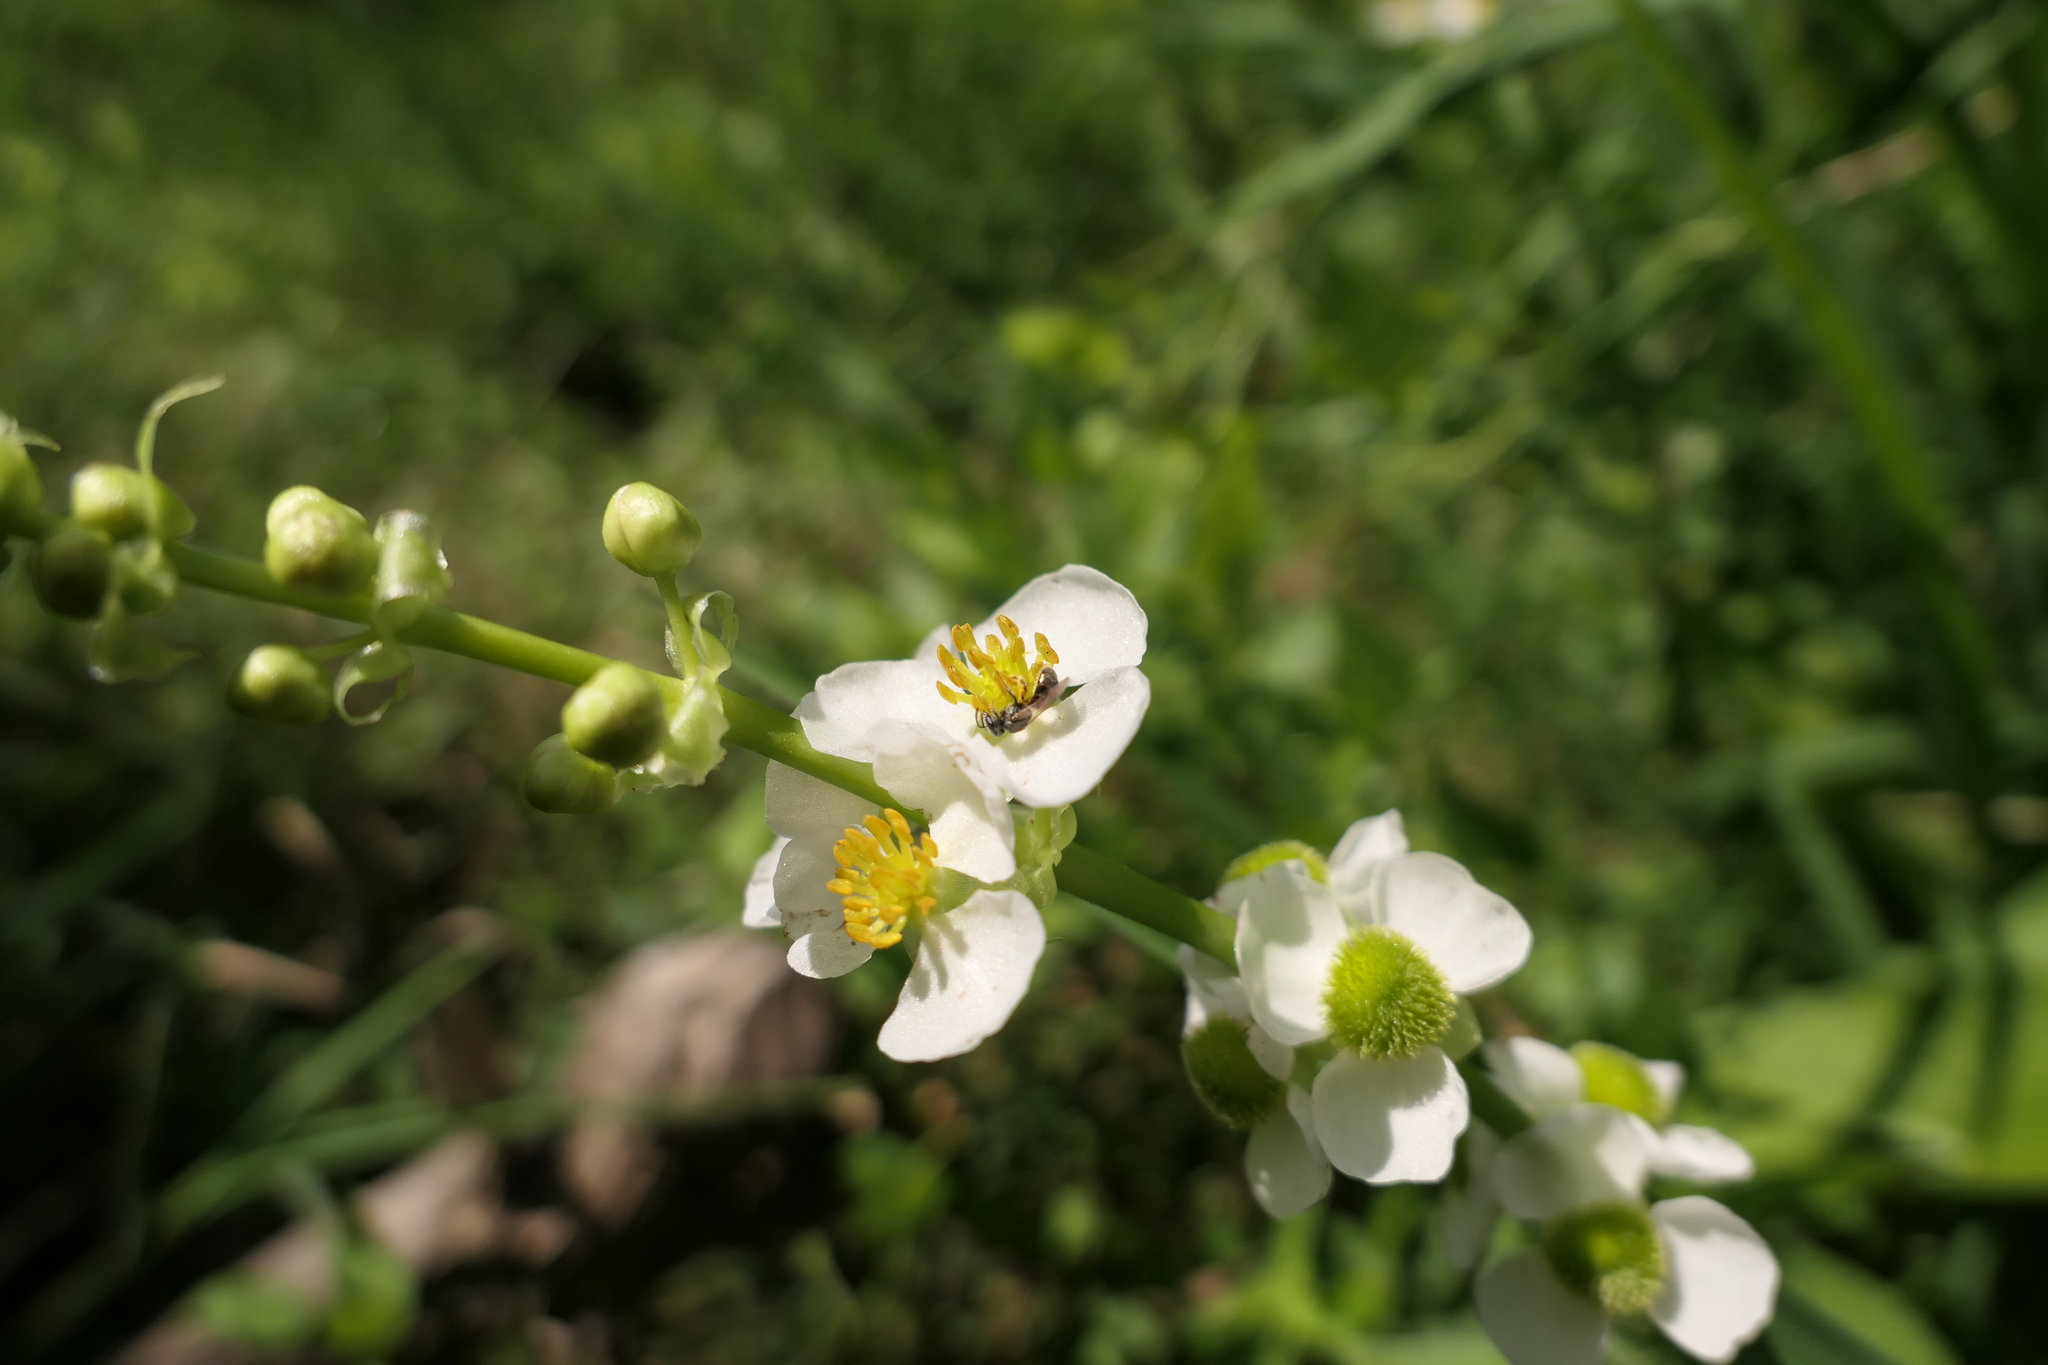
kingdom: Plantae
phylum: Tracheophyta
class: Liliopsida
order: Alismatales
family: Alismataceae
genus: Sagittaria
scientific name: Sagittaria australis
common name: Appalachian arrowhead
